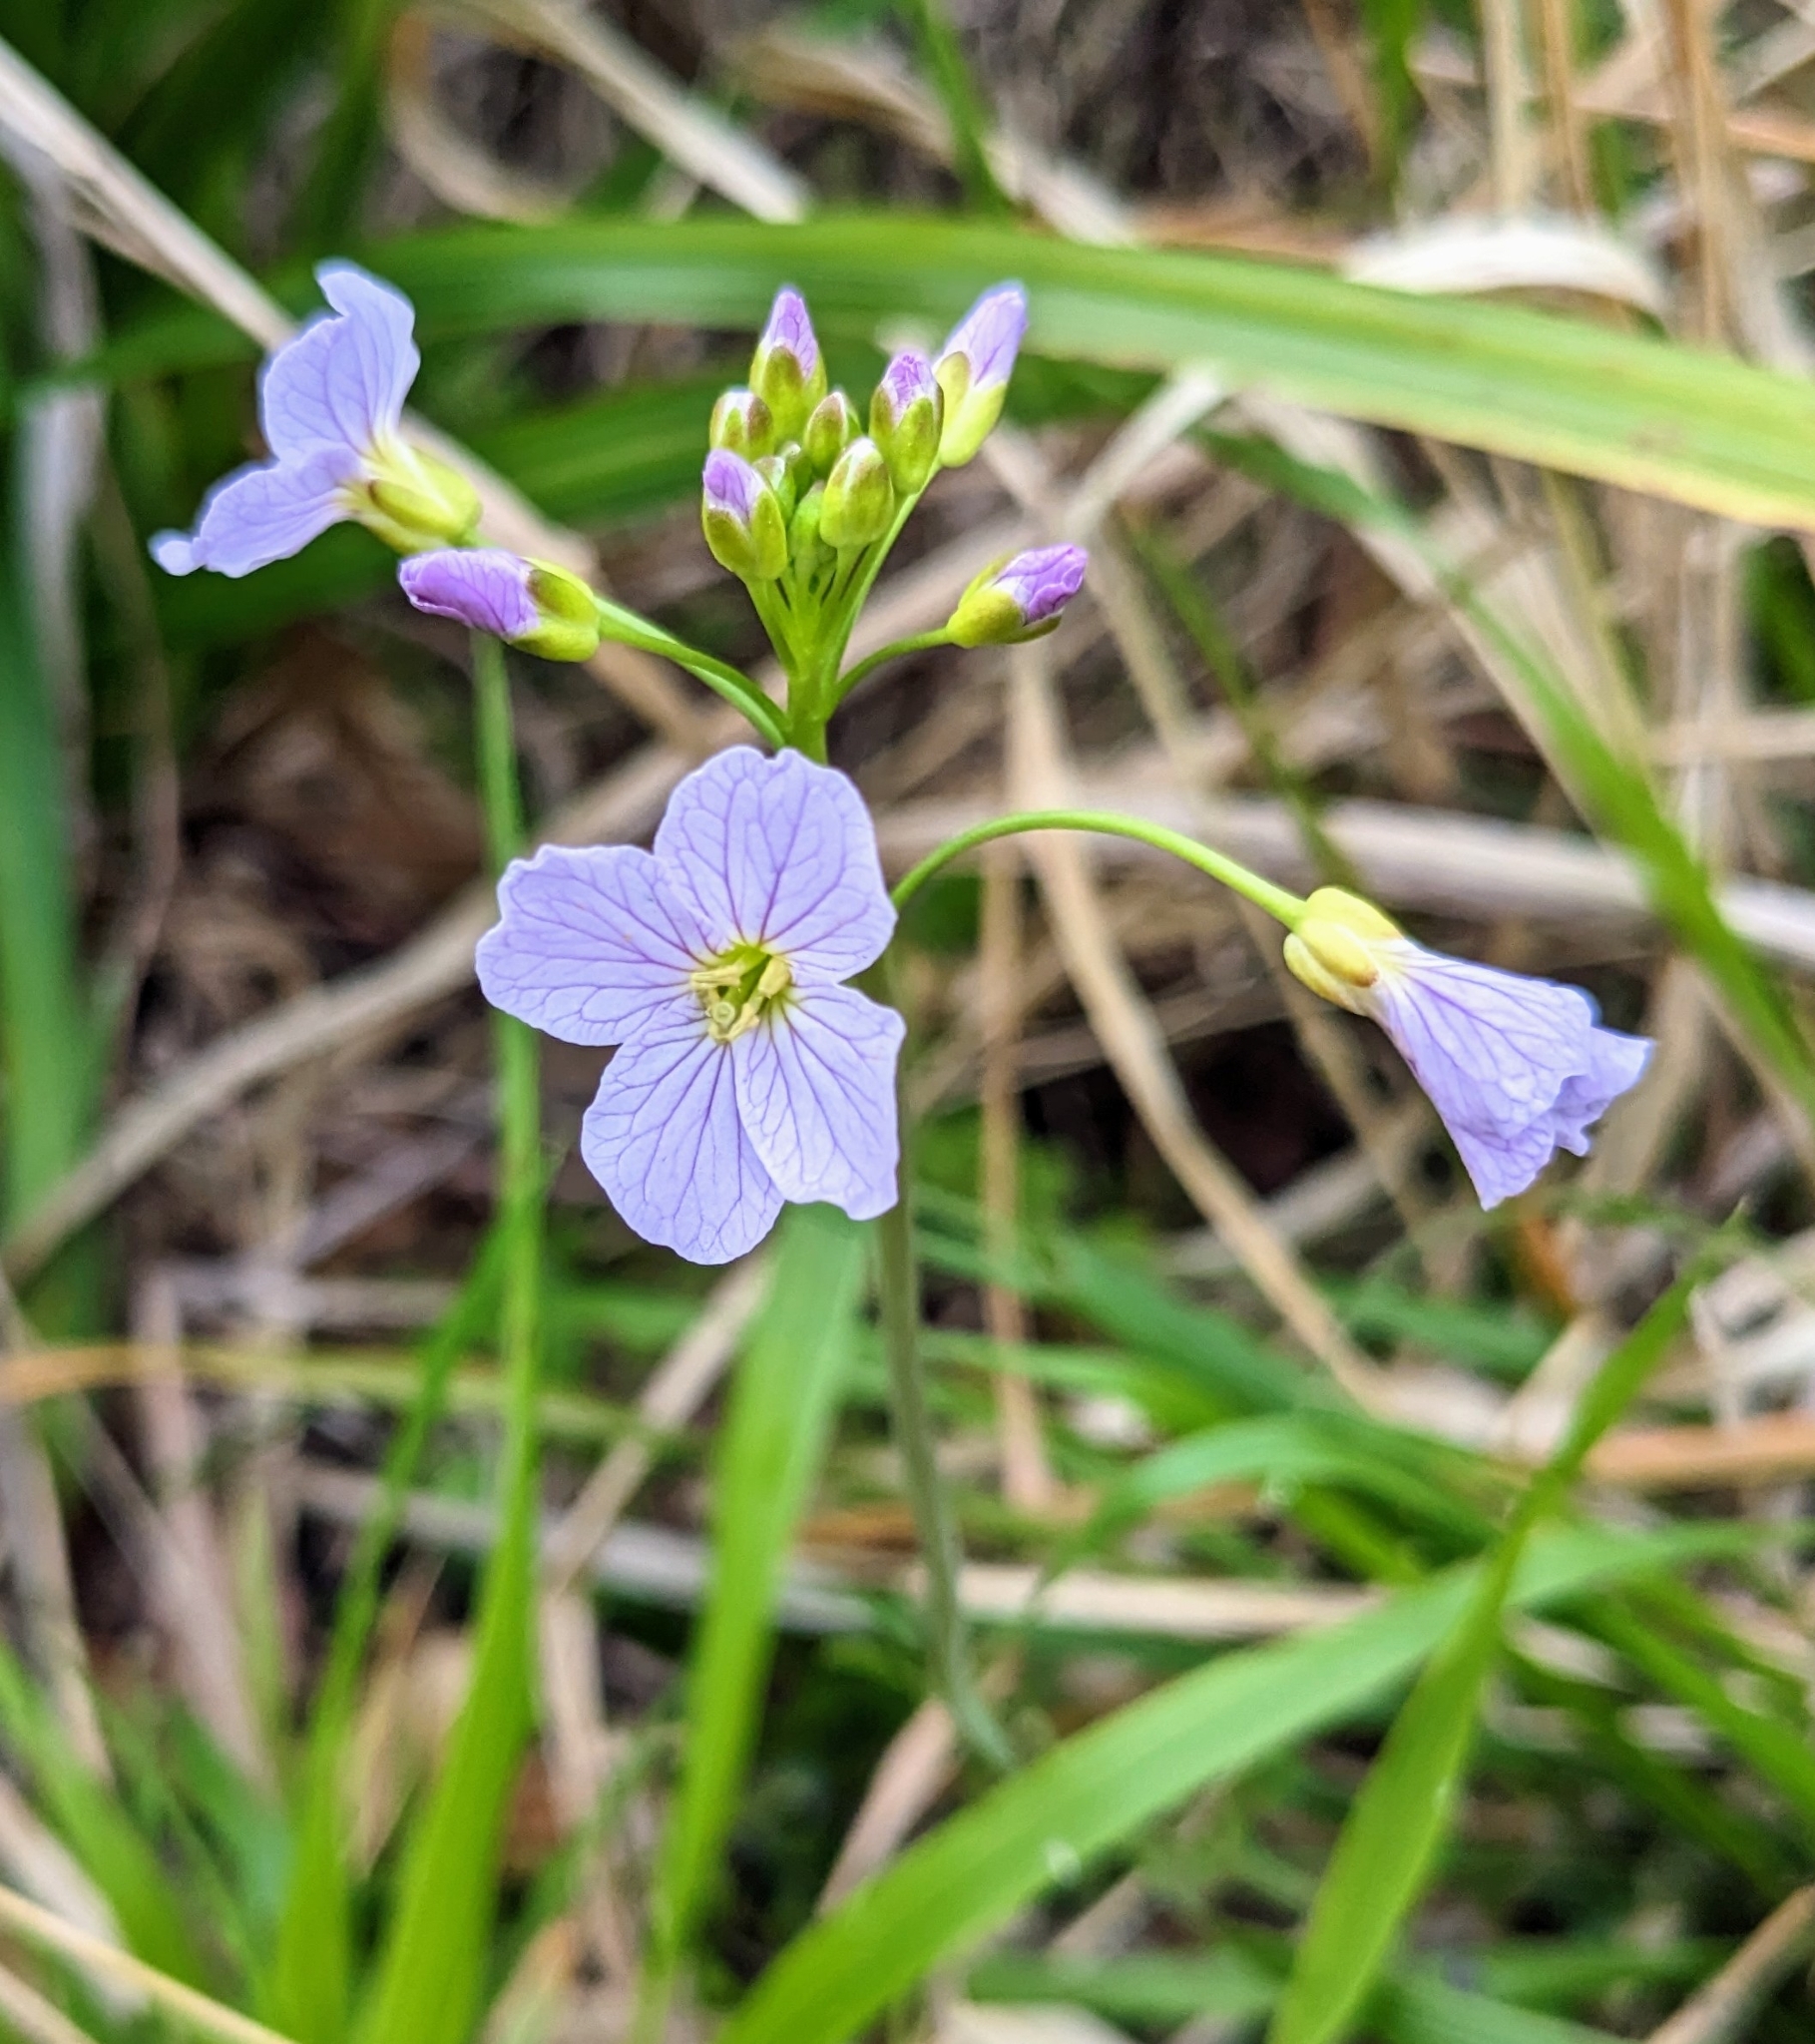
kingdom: Plantae
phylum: Tracheophyta
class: Magnoliopsida
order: Brassicales
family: Brassicaceae
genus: Cardamine
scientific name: Cardamine pratensis
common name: Cuckoo flower
